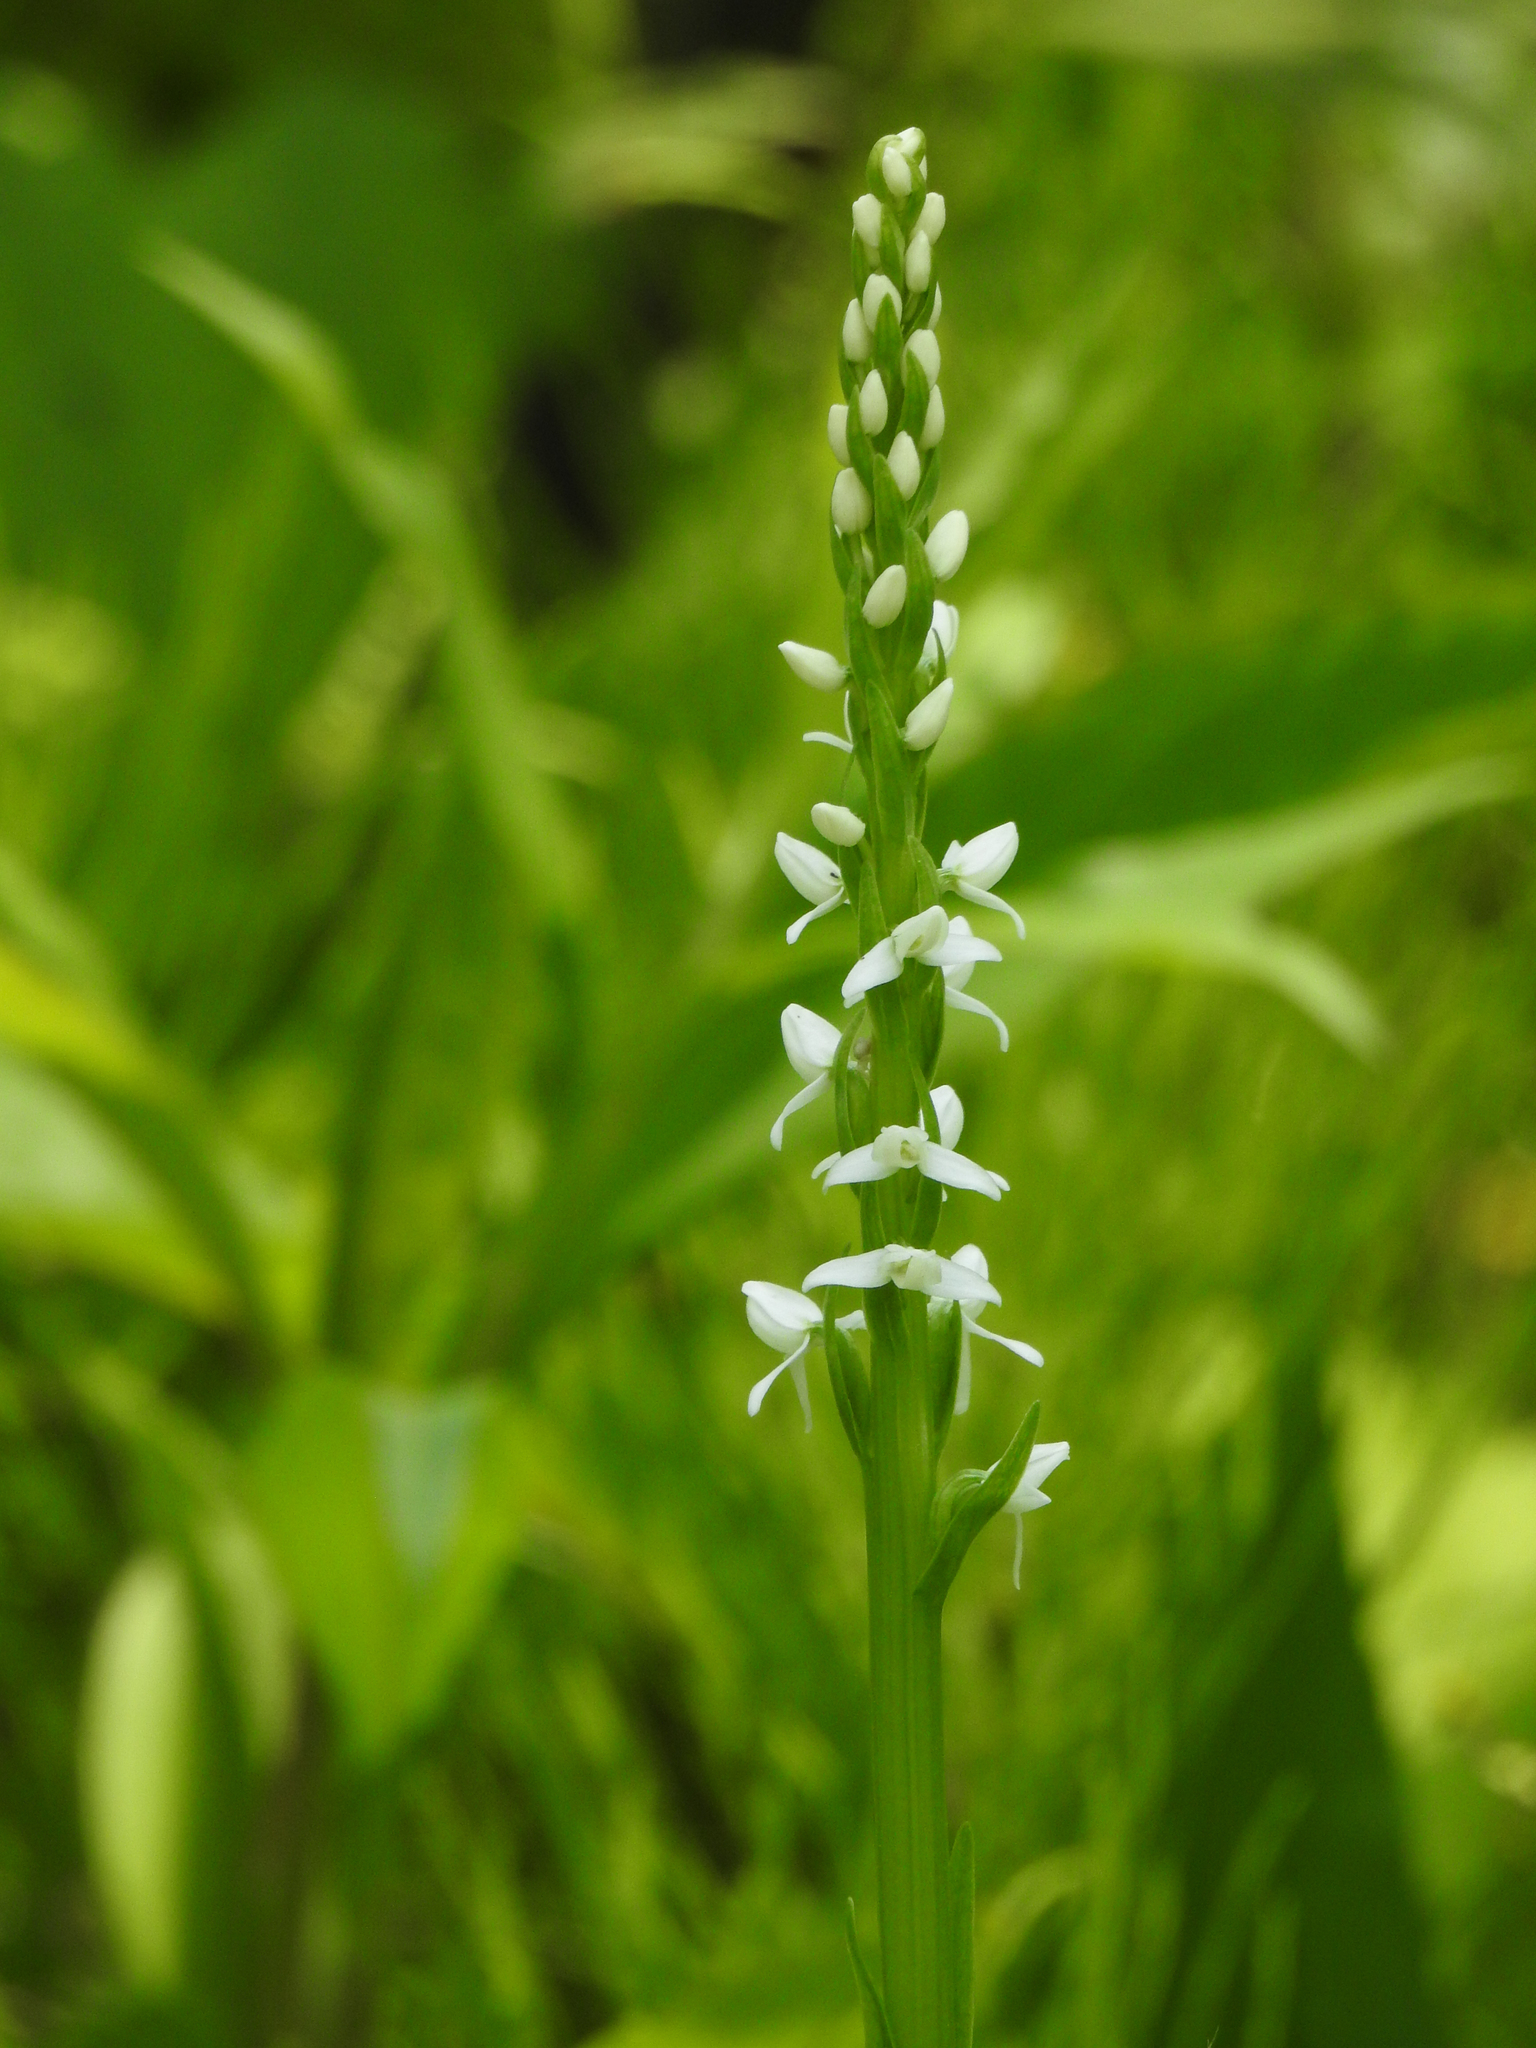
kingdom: Plantae
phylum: Tracheophyta
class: Liliopsida
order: Asparagales
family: Orchidaceae
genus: Platanthera
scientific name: Platanthera dilatata
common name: Bog candles
